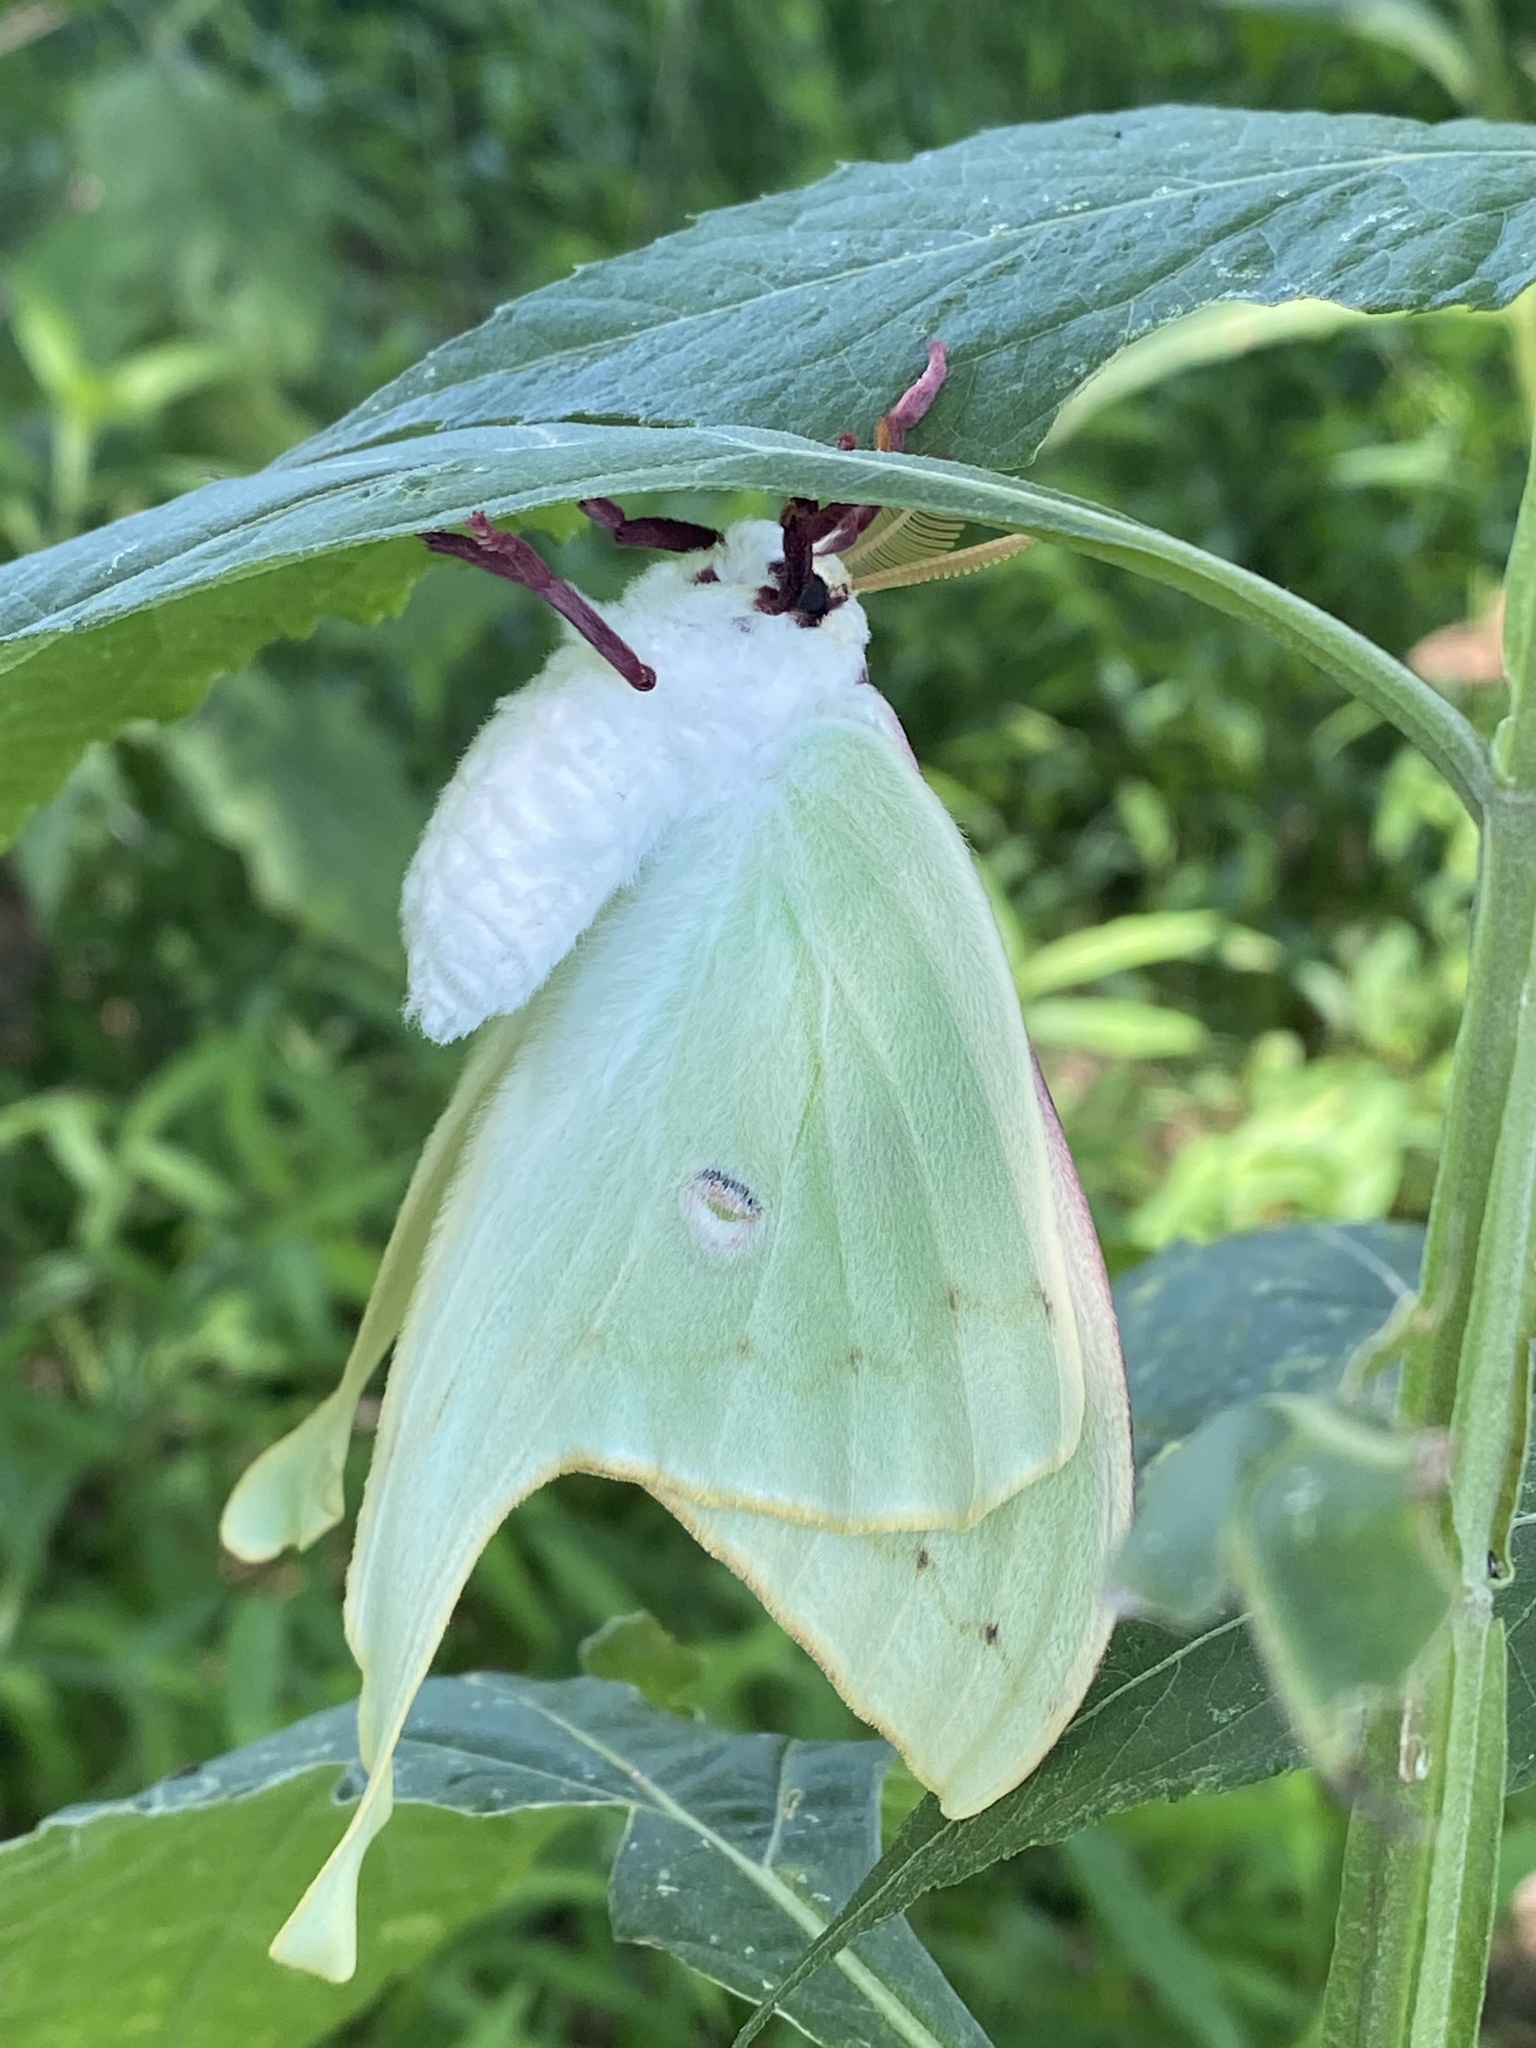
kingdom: Animalia
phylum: Arthropoda
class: Insecta
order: Lepidoptera
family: Saturniidae
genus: Actias
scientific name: Actias luna
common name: Luna moth
